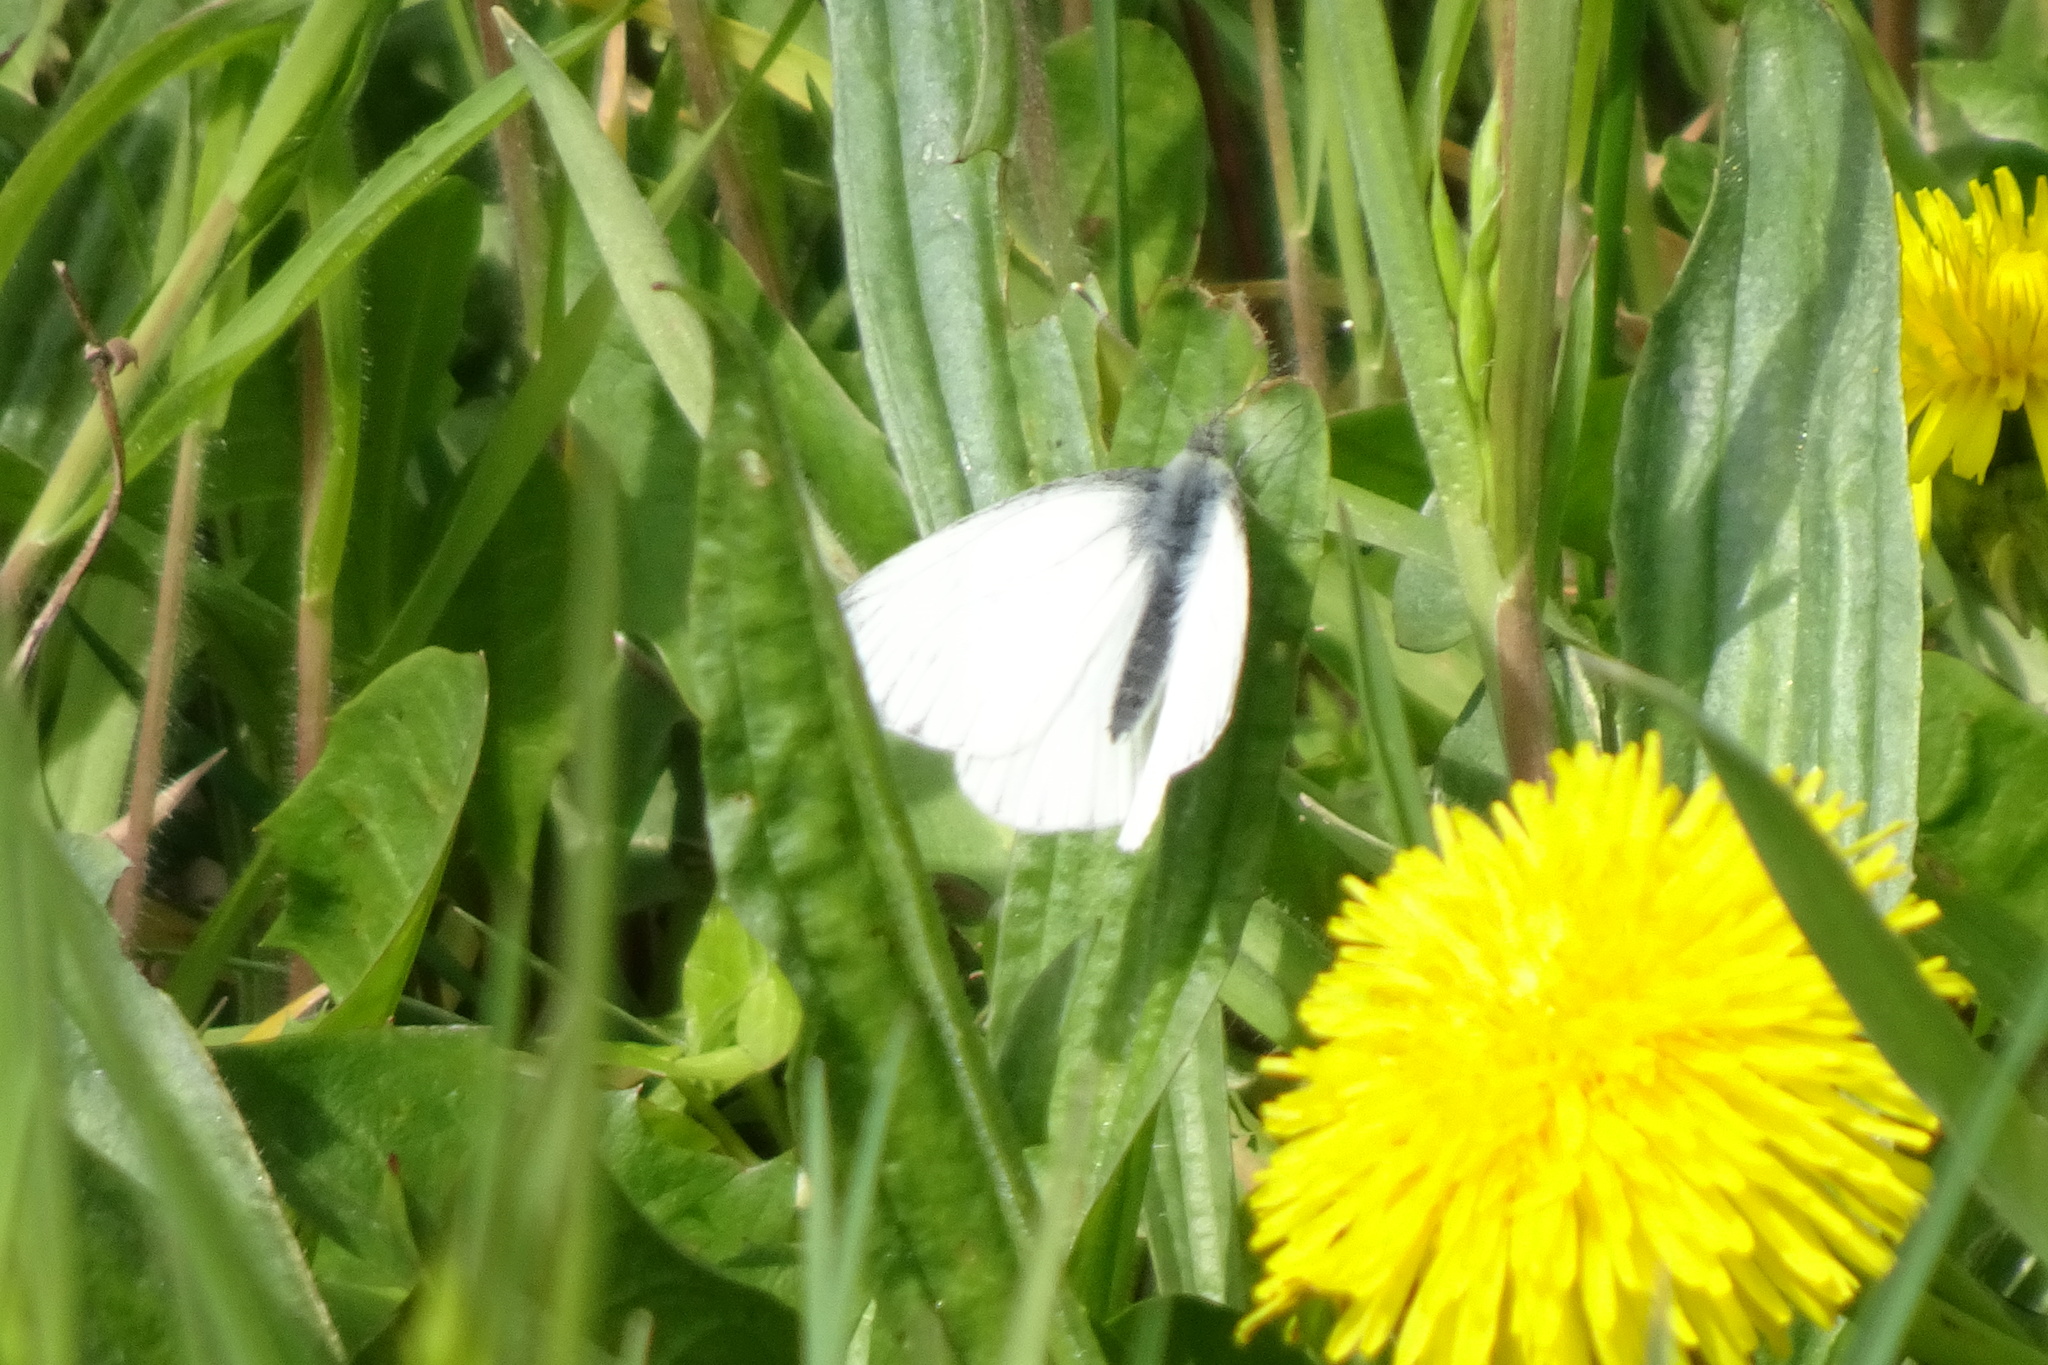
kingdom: Animalia
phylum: Arthropoda
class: Insecta
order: Lepidoptera
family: Pieridae
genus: Pieris
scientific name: Pieris napi
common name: Green-veined white
